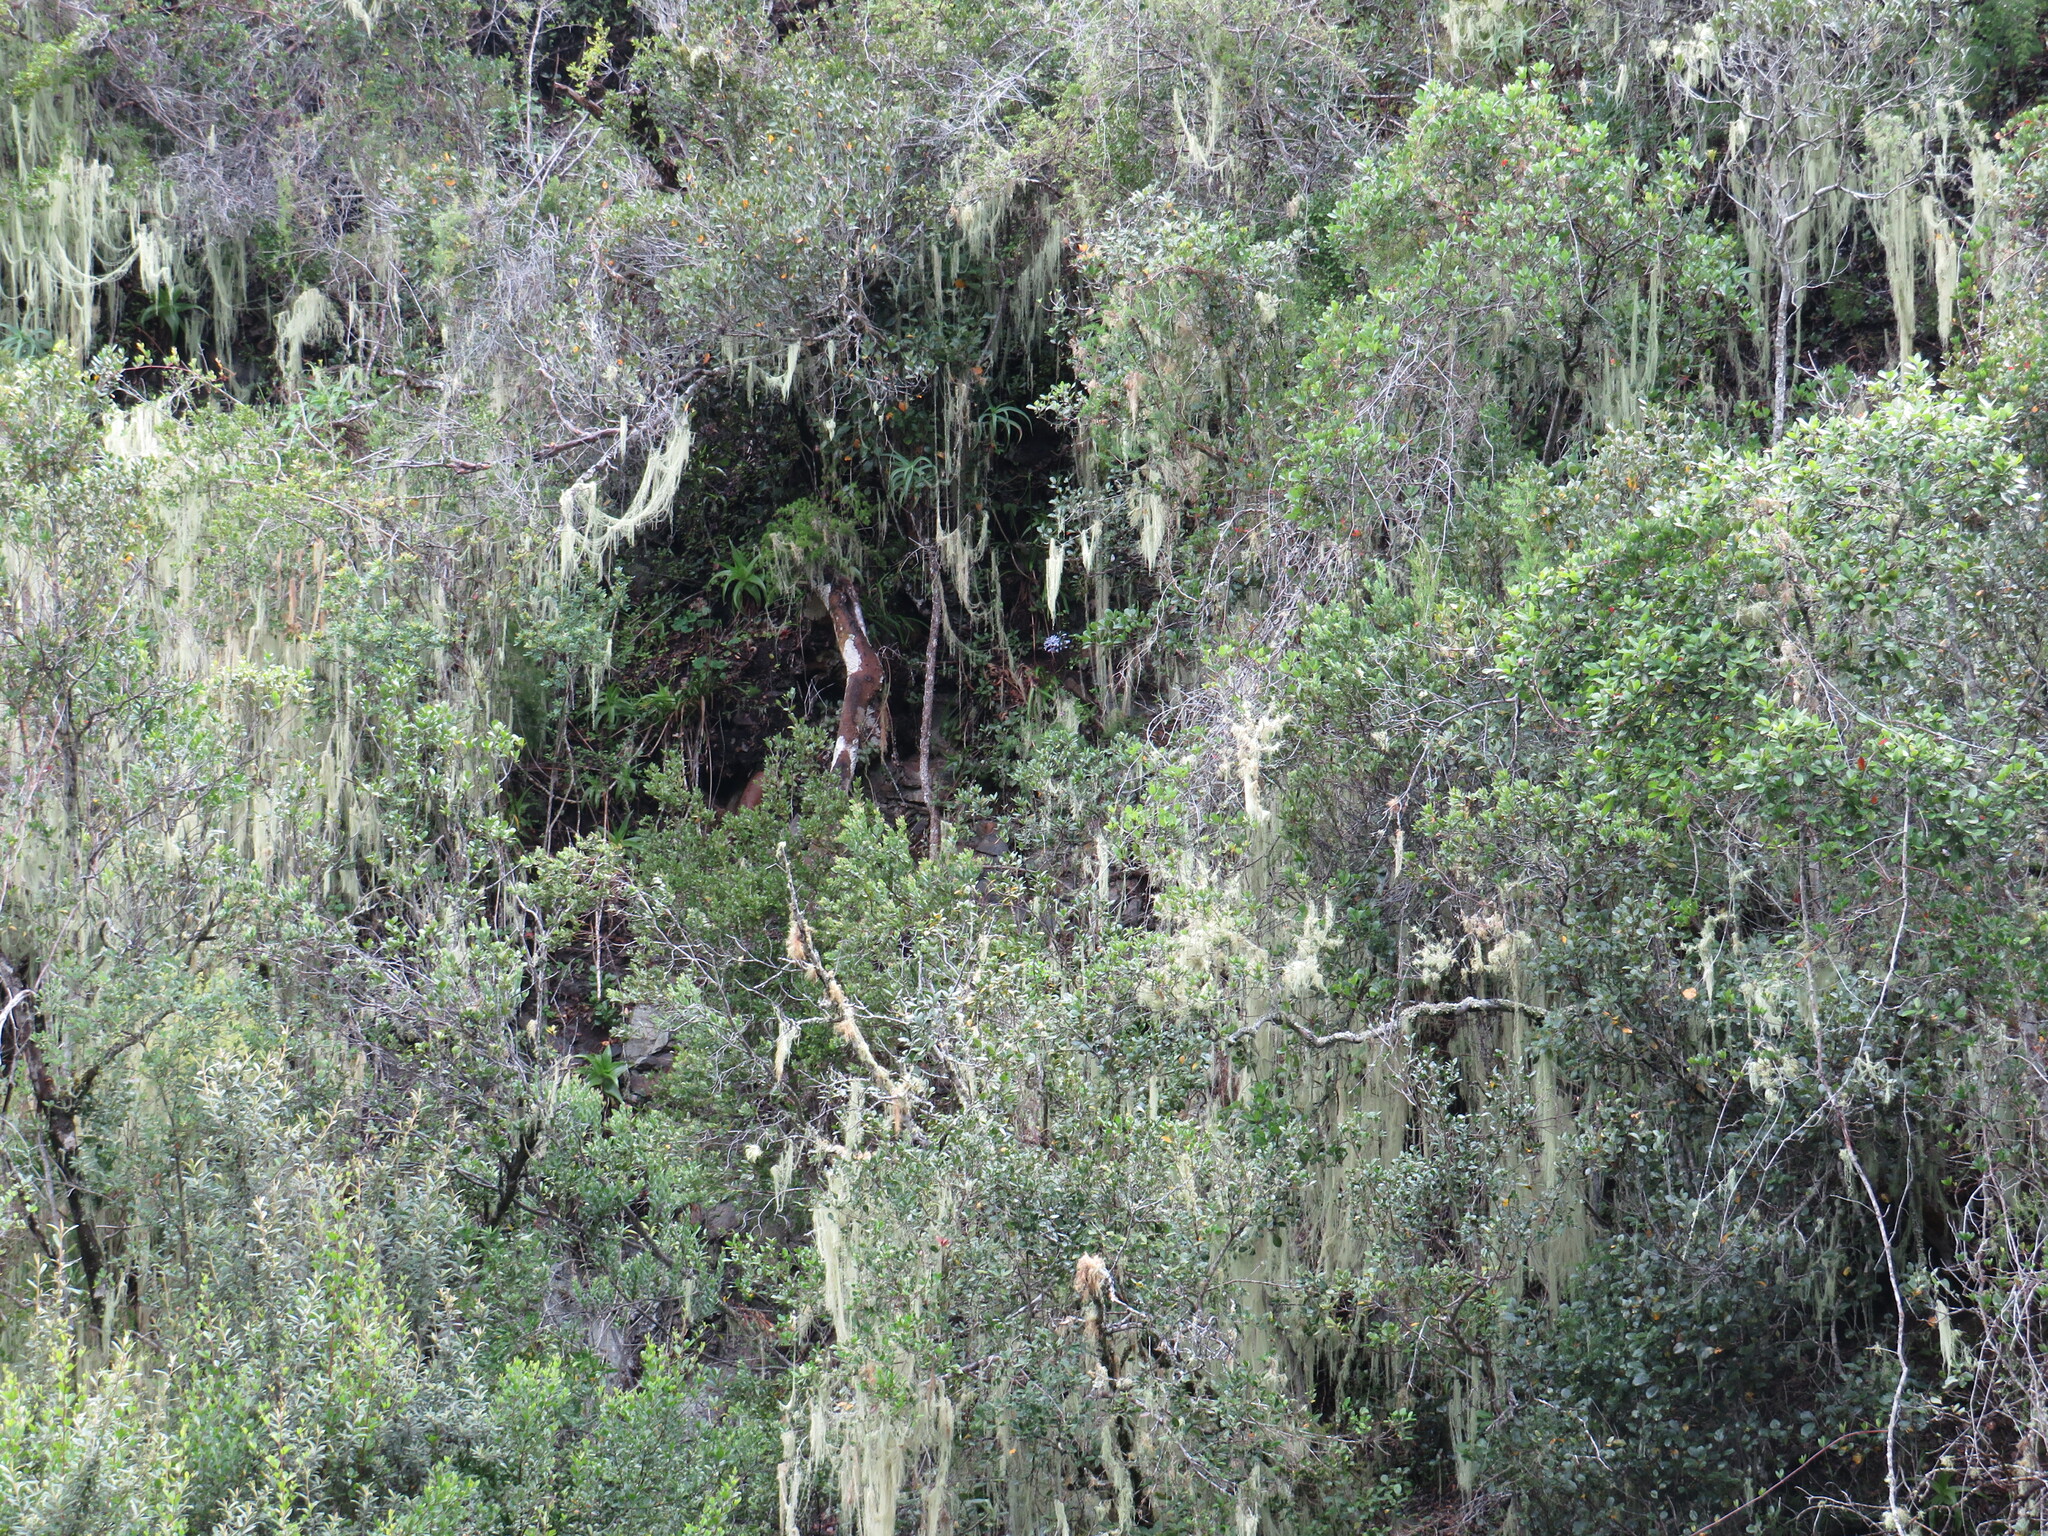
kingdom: Plantae
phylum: Tracheophyta
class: Liliopsida
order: Asparagales
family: Asphodelaceae
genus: Bulbine
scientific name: Bulbine latifolia
